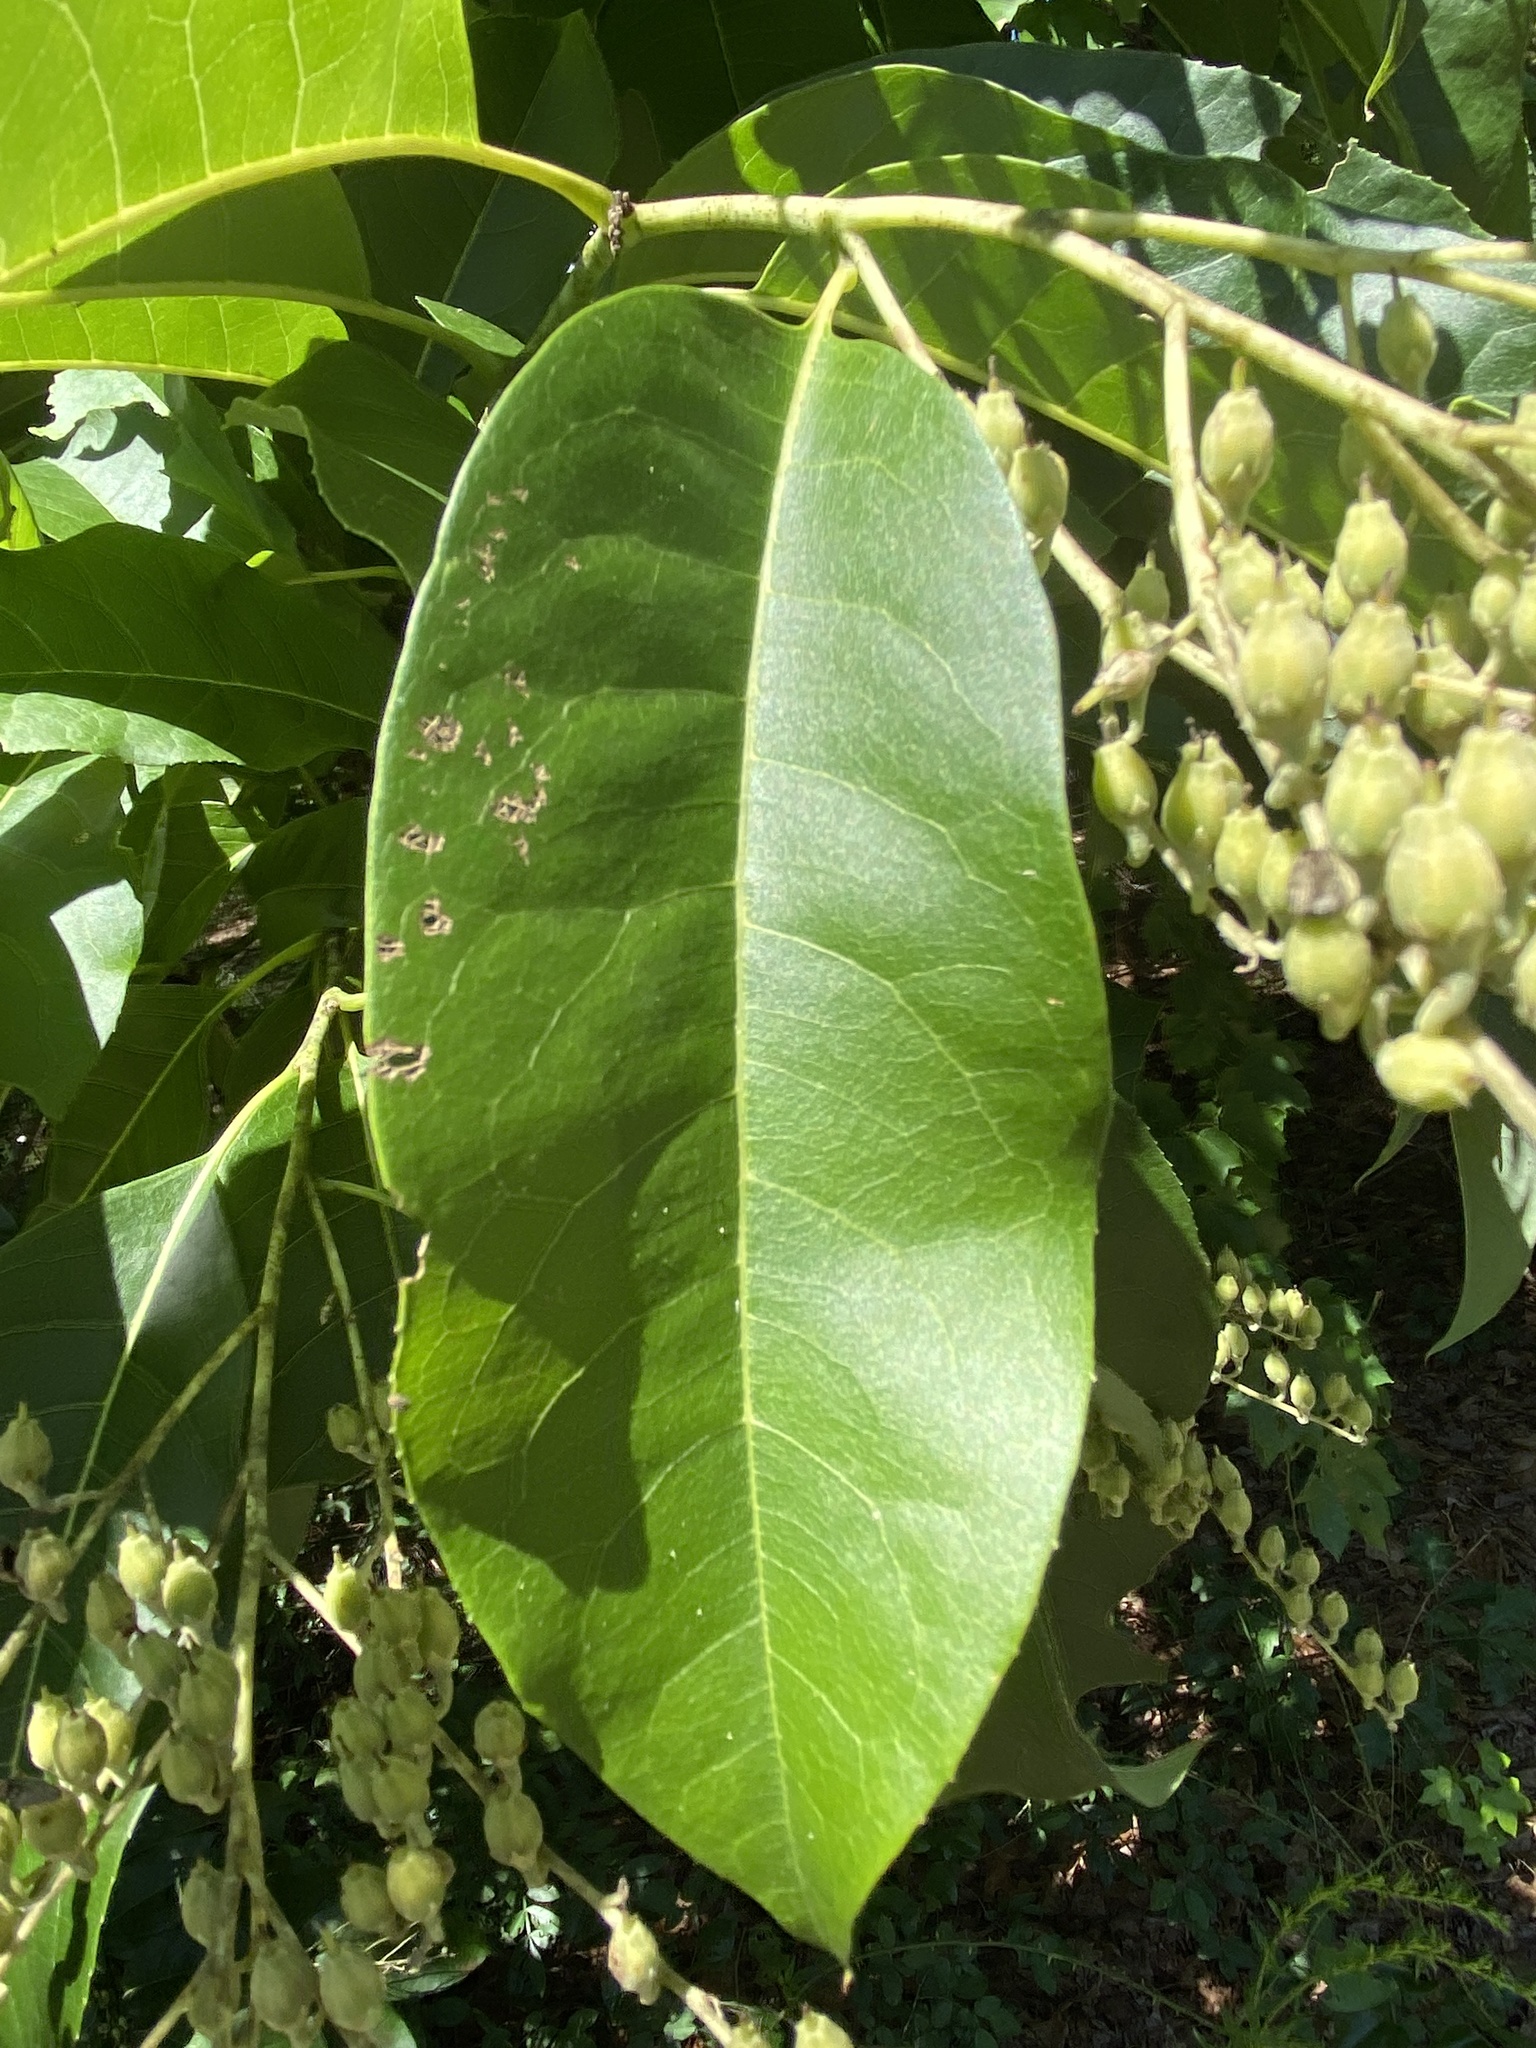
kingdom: Plantae
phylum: Tracheophyta
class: Magnoliopsida
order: Ericales
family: Ericaceae
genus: Oxydendrum
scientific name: Oxydendrum arboreum
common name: Sourwood
